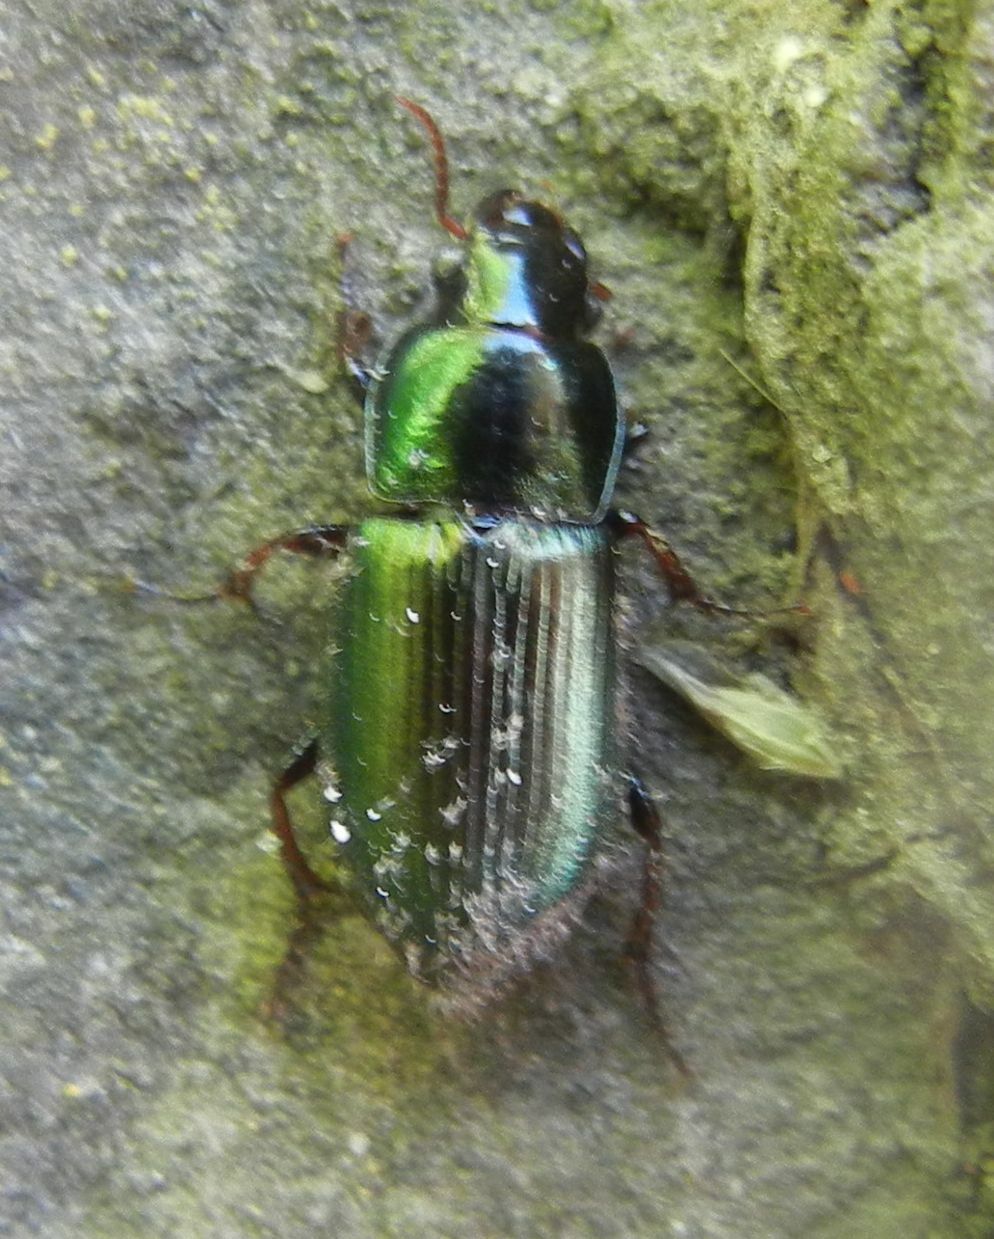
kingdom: Animalia
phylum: Arthropoda
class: Insecta
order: Coleoptera
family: Carabidae
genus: Harpalus
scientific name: Harpalus affinis
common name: Polychrome harp ground beetle
